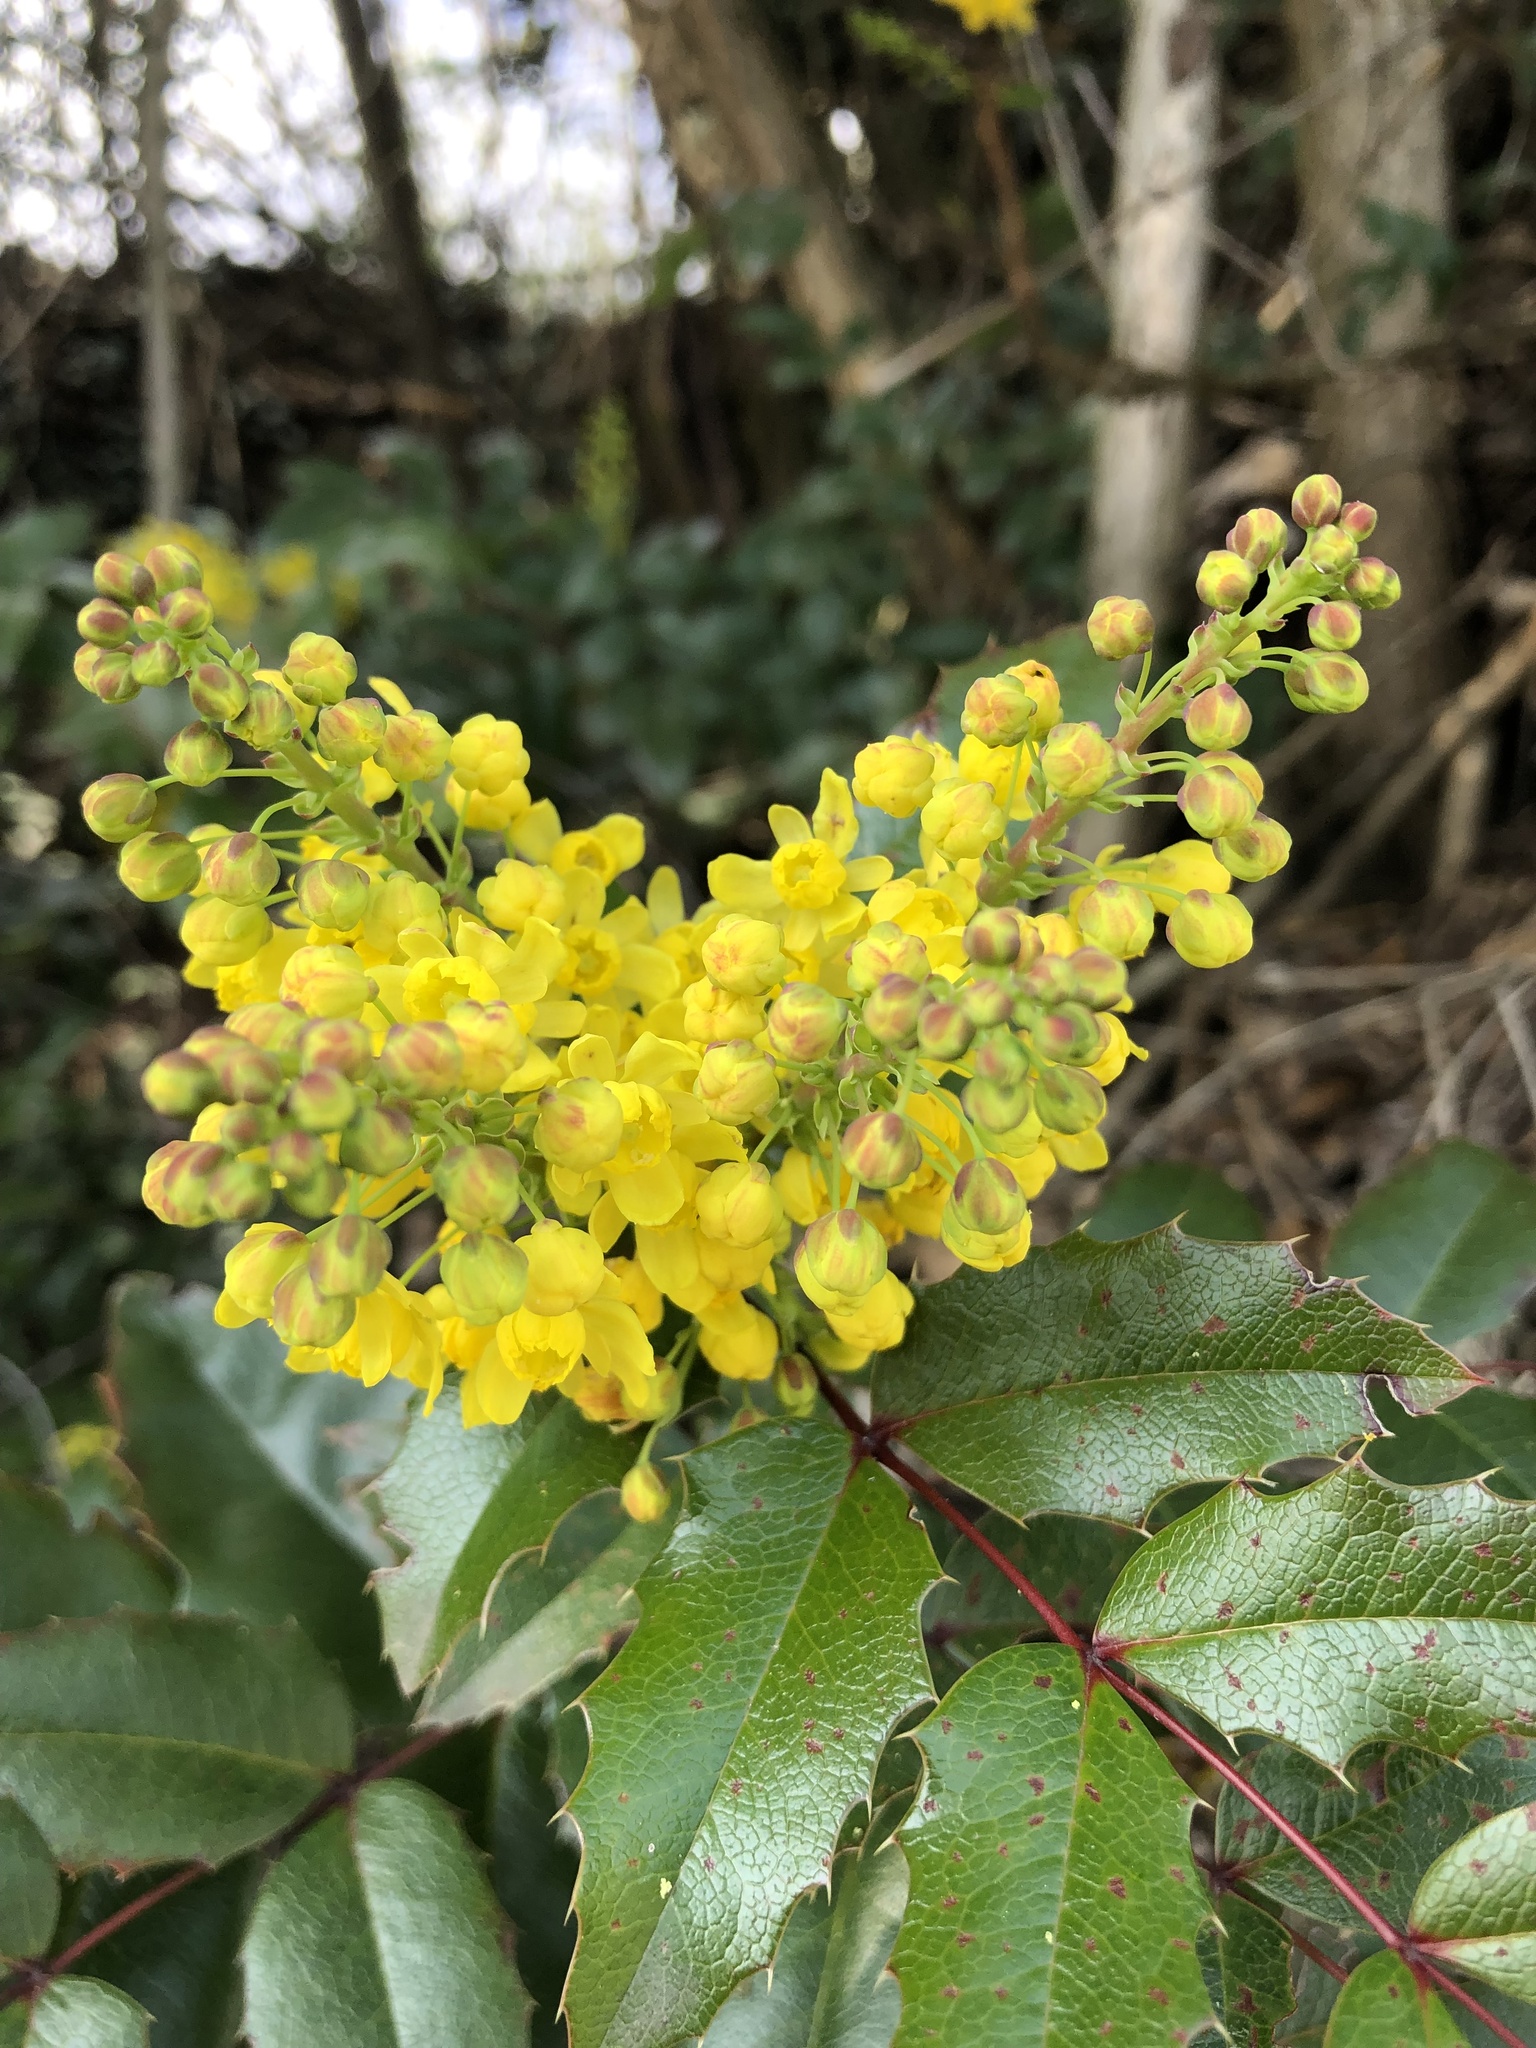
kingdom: Plantae
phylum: Tracheophyta
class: Magnoliopsida
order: Ranunculales
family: Berberidaceae
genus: Mahonia
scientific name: Mahonia aquifolium
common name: Oregon-grape
